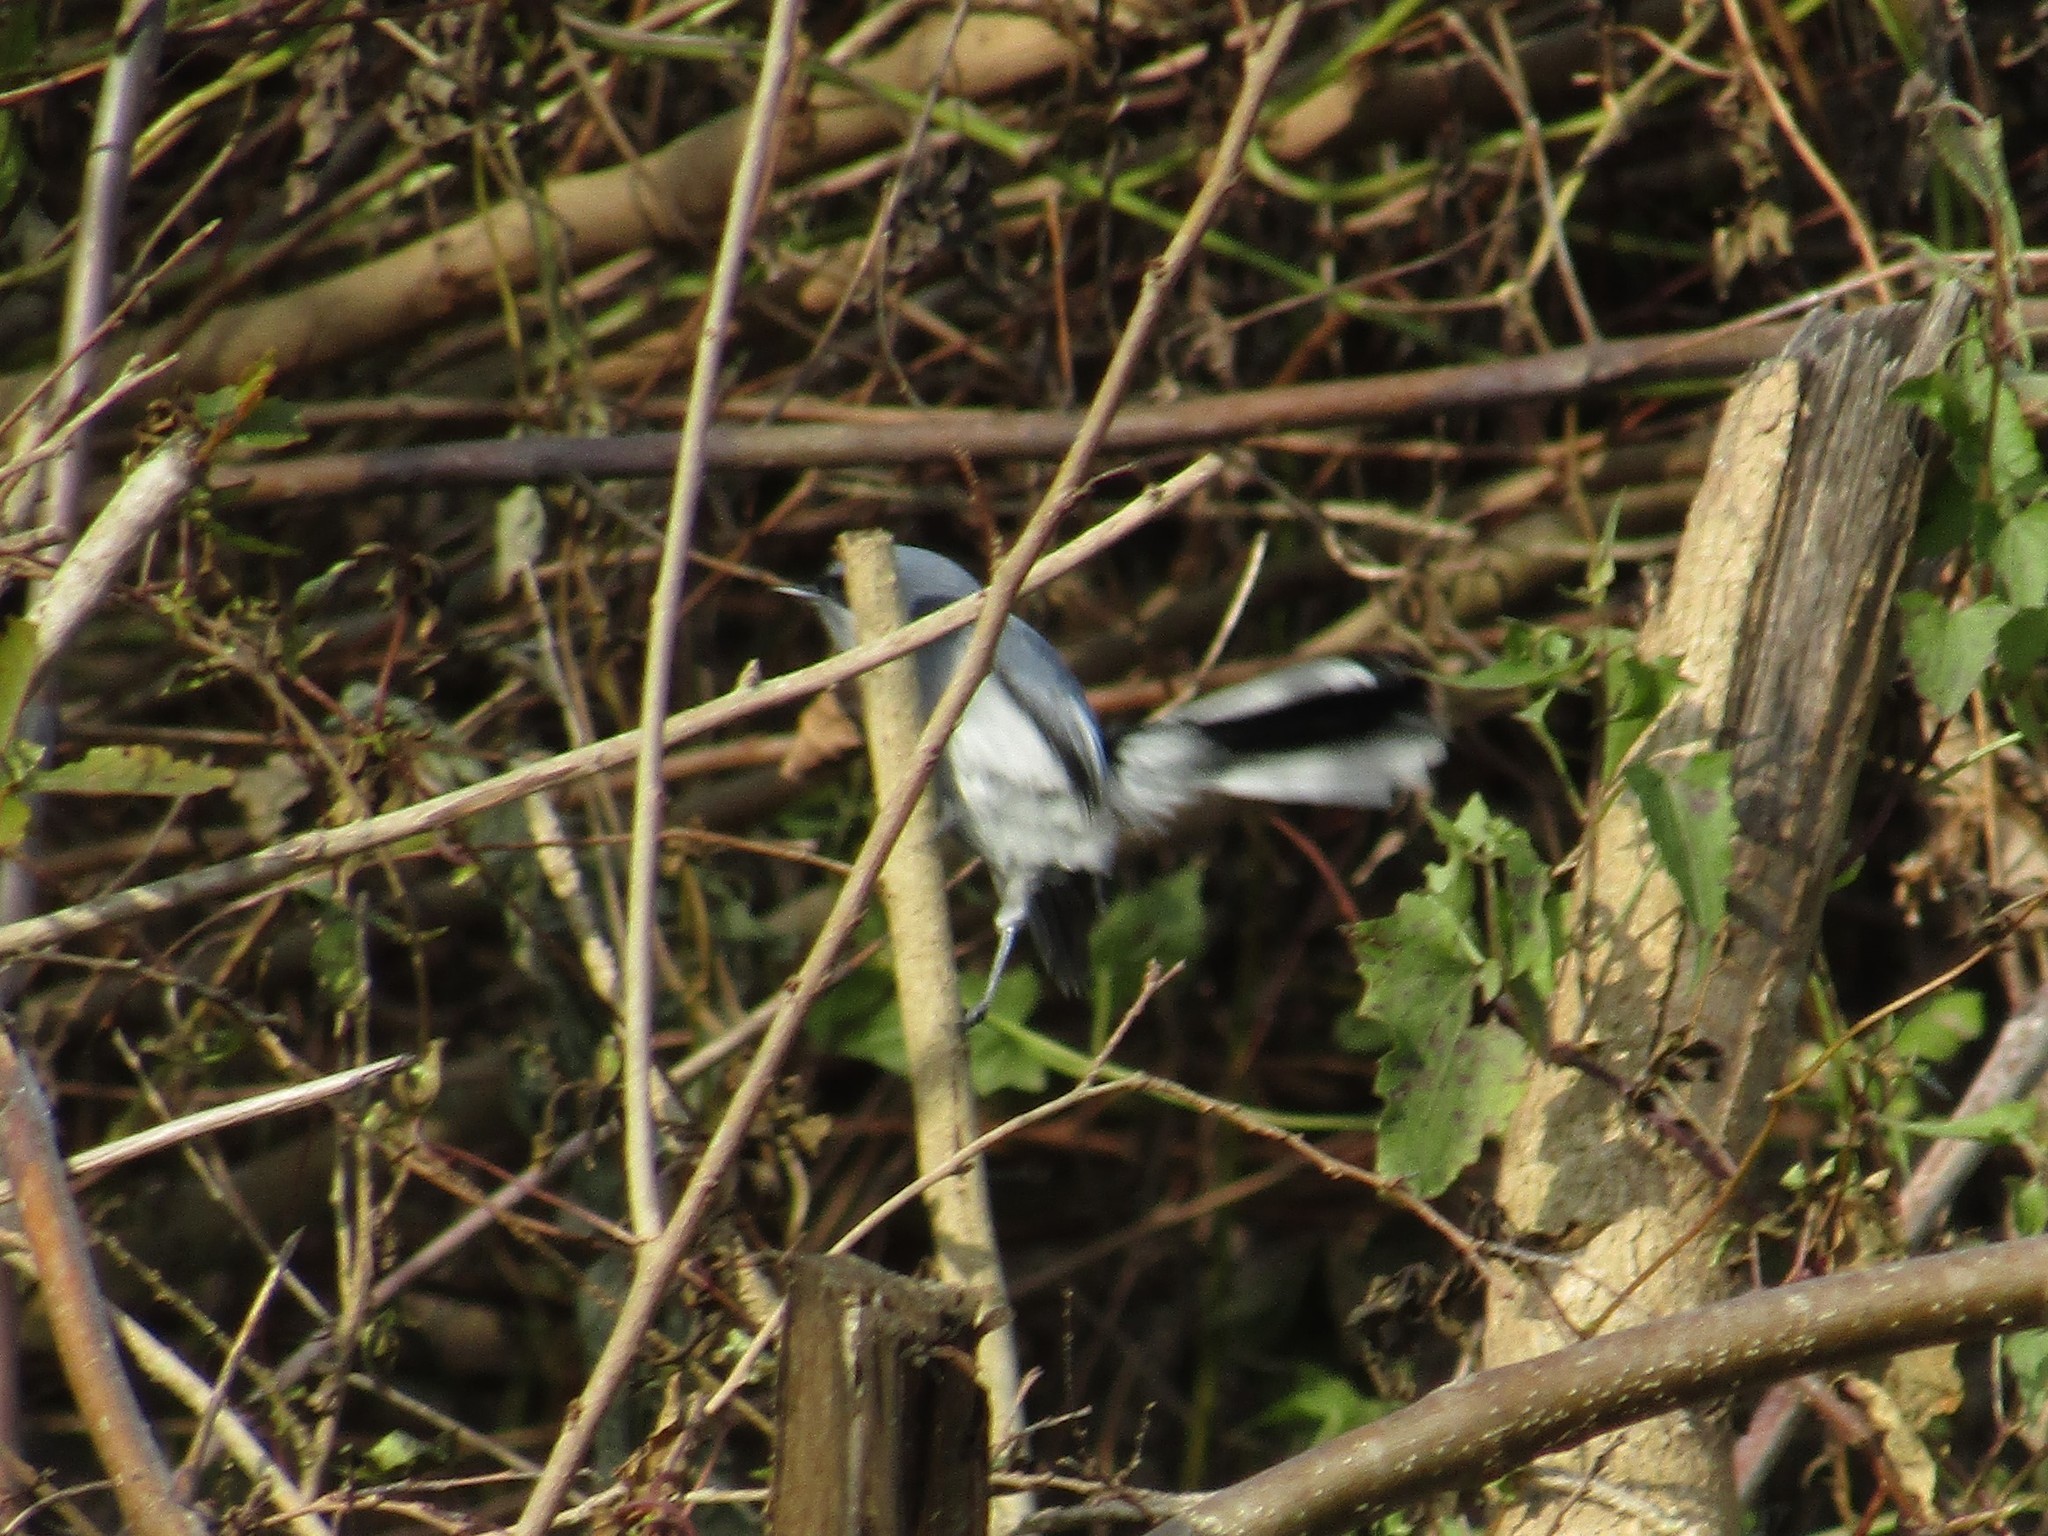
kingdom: Animalia
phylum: Chordata
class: Aves
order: Passeriformes
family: Polioptilidae
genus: Polioptila
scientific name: Polioptila dumicola
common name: Masked gnatcatcher
